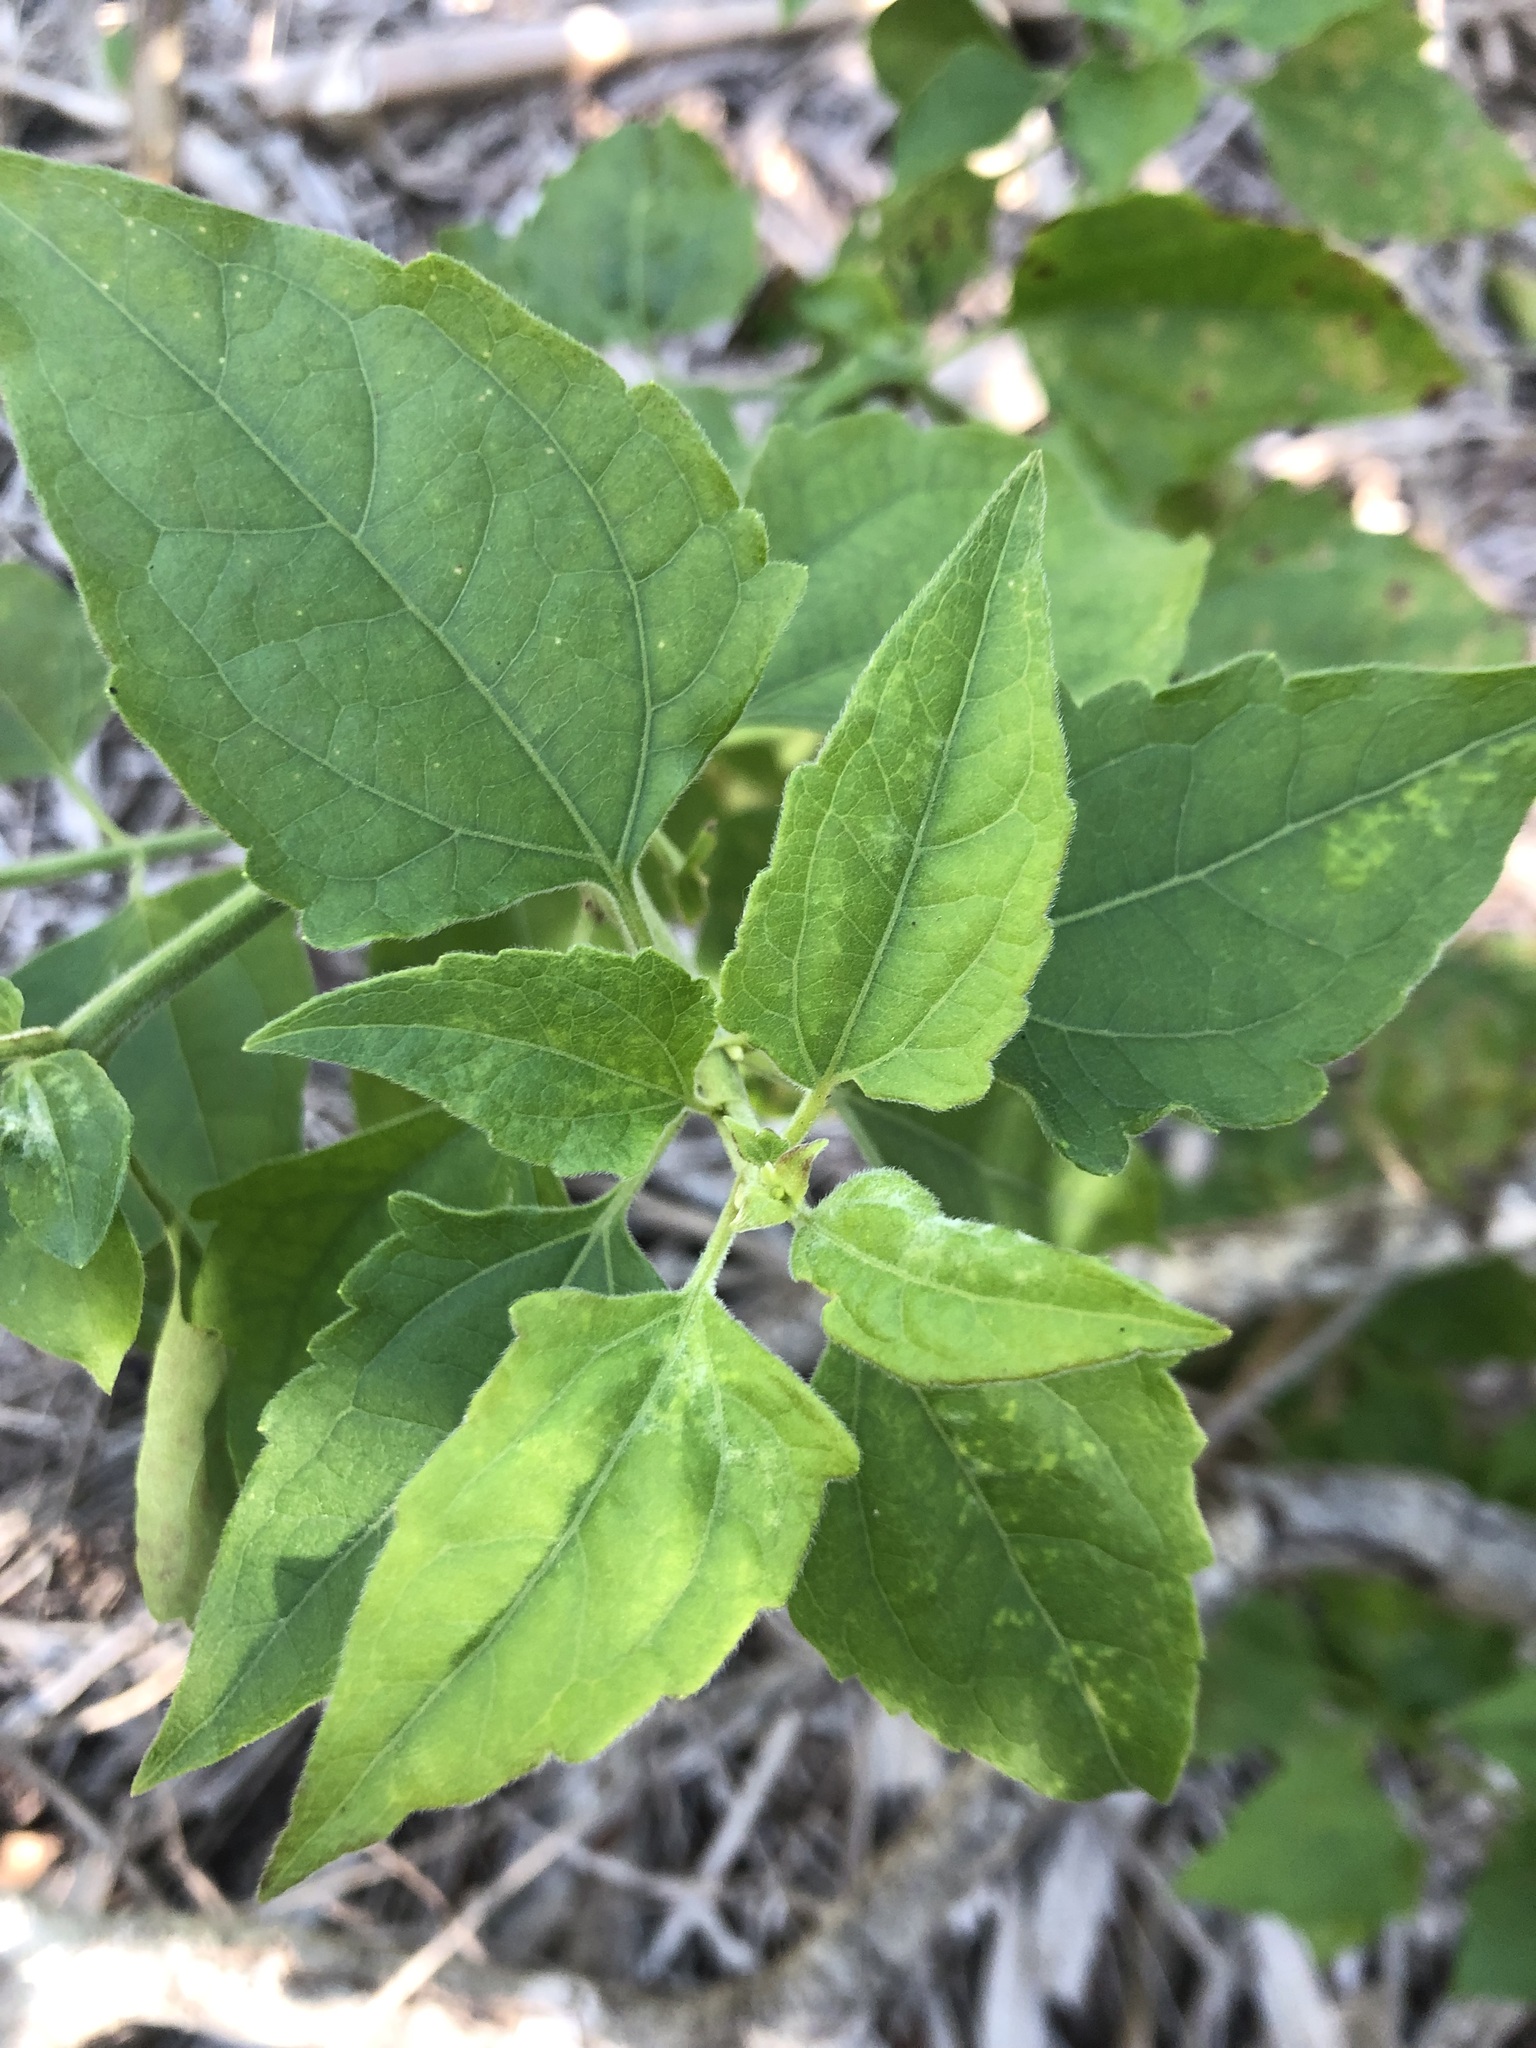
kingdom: Plantae
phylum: Tracheophyta
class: Magnoliopsida
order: Asterales
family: Asteraceae
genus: Chromolaena
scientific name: Chromolaena odorata
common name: Siamweed
